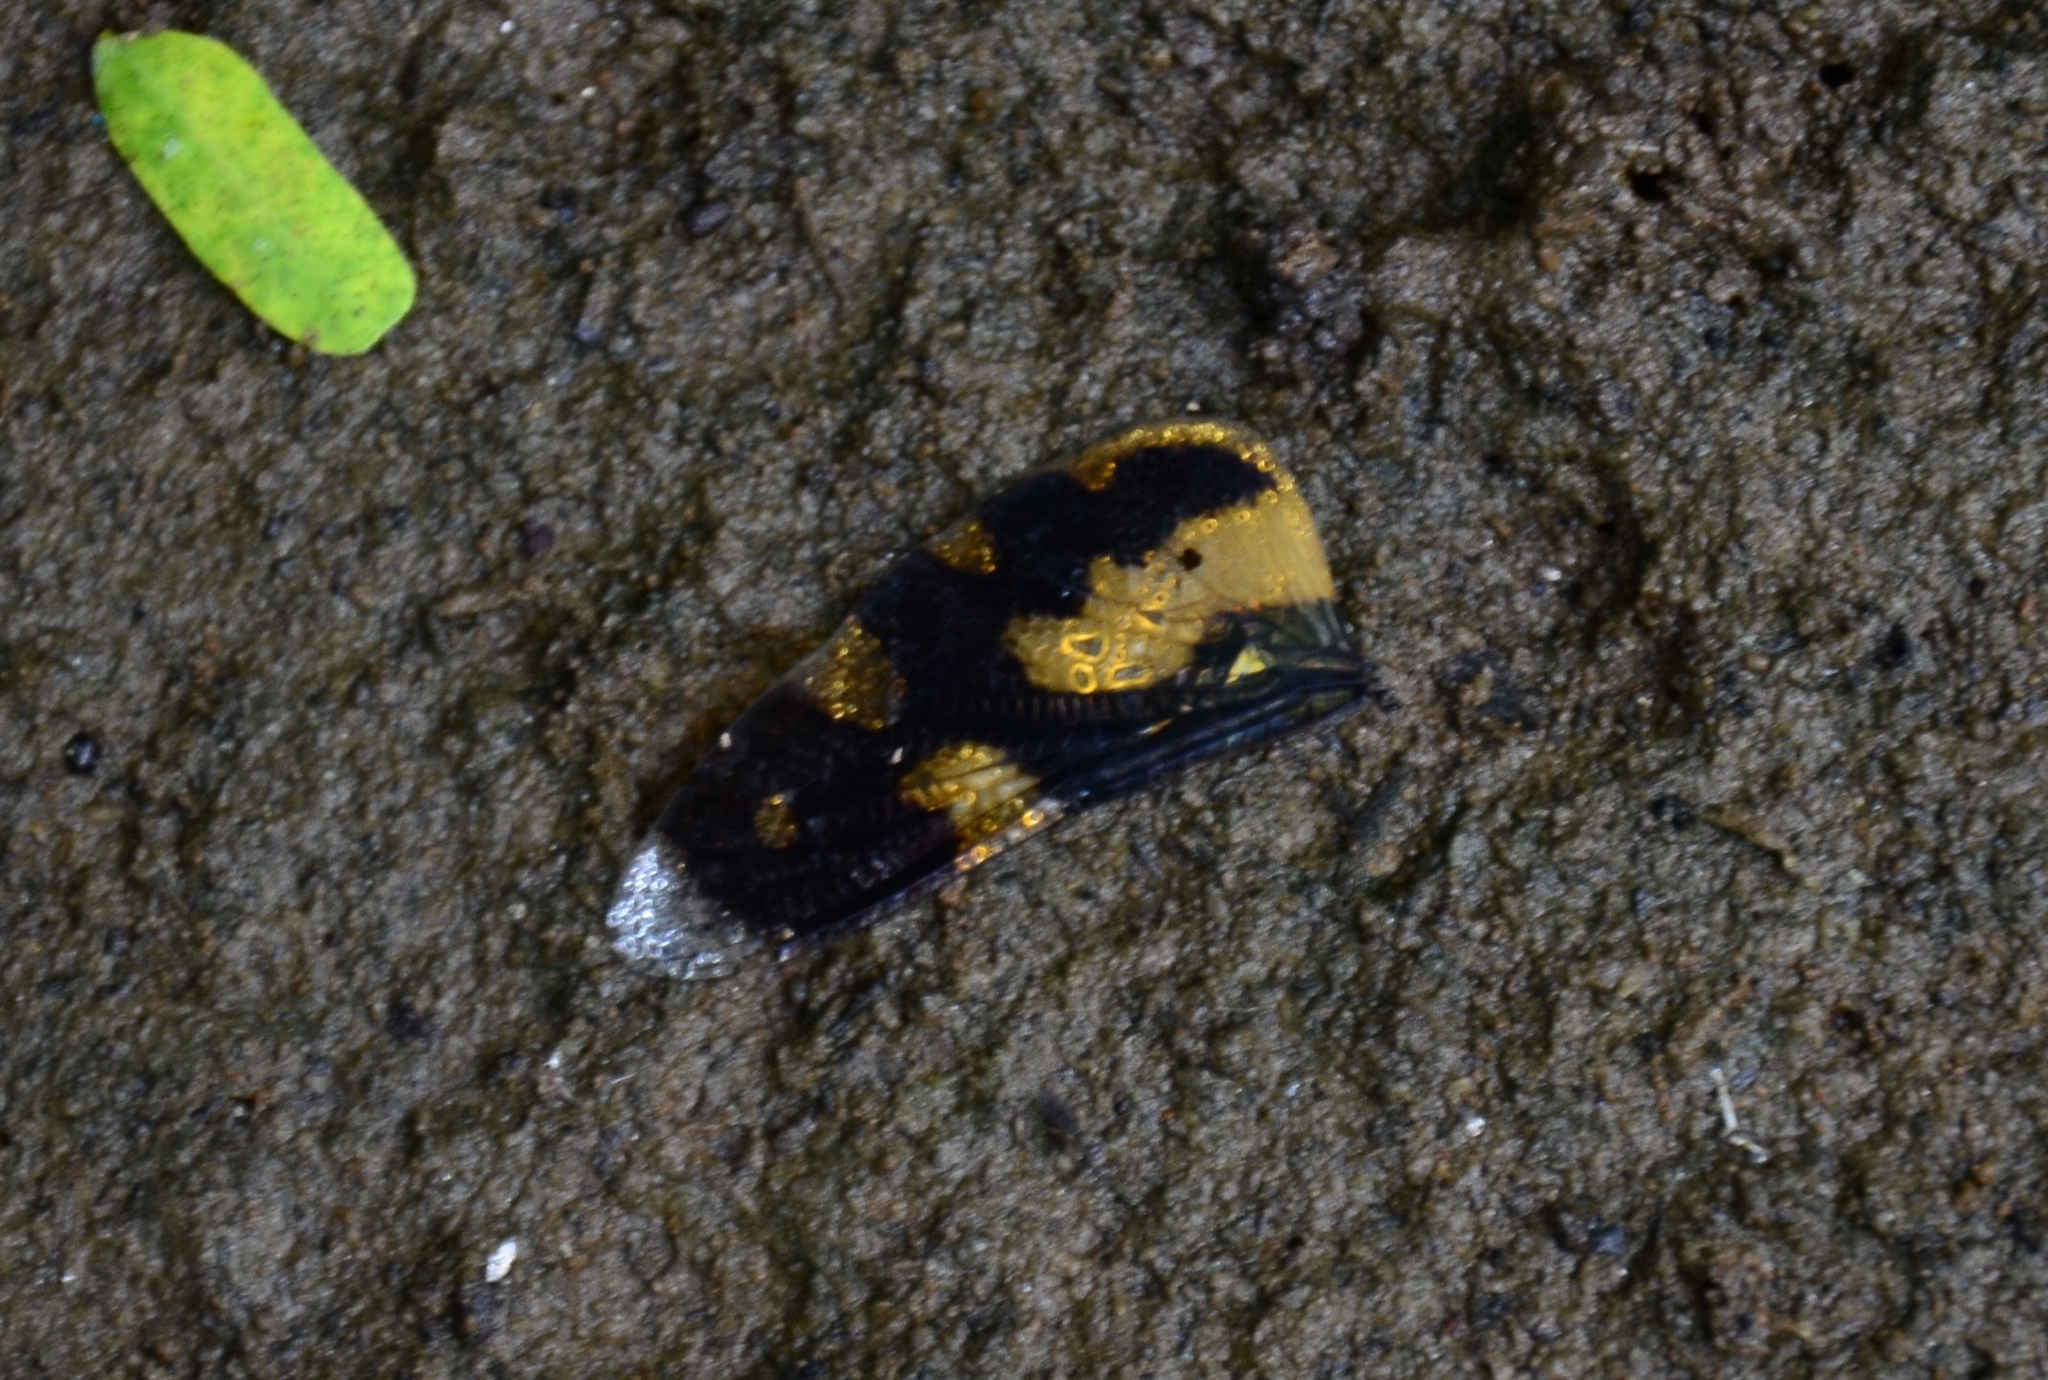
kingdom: Animalia
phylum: Arthropoda
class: Insecta
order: Odonata
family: Libellulidae
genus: Rhyothemis
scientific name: Rhyothemis variegata
